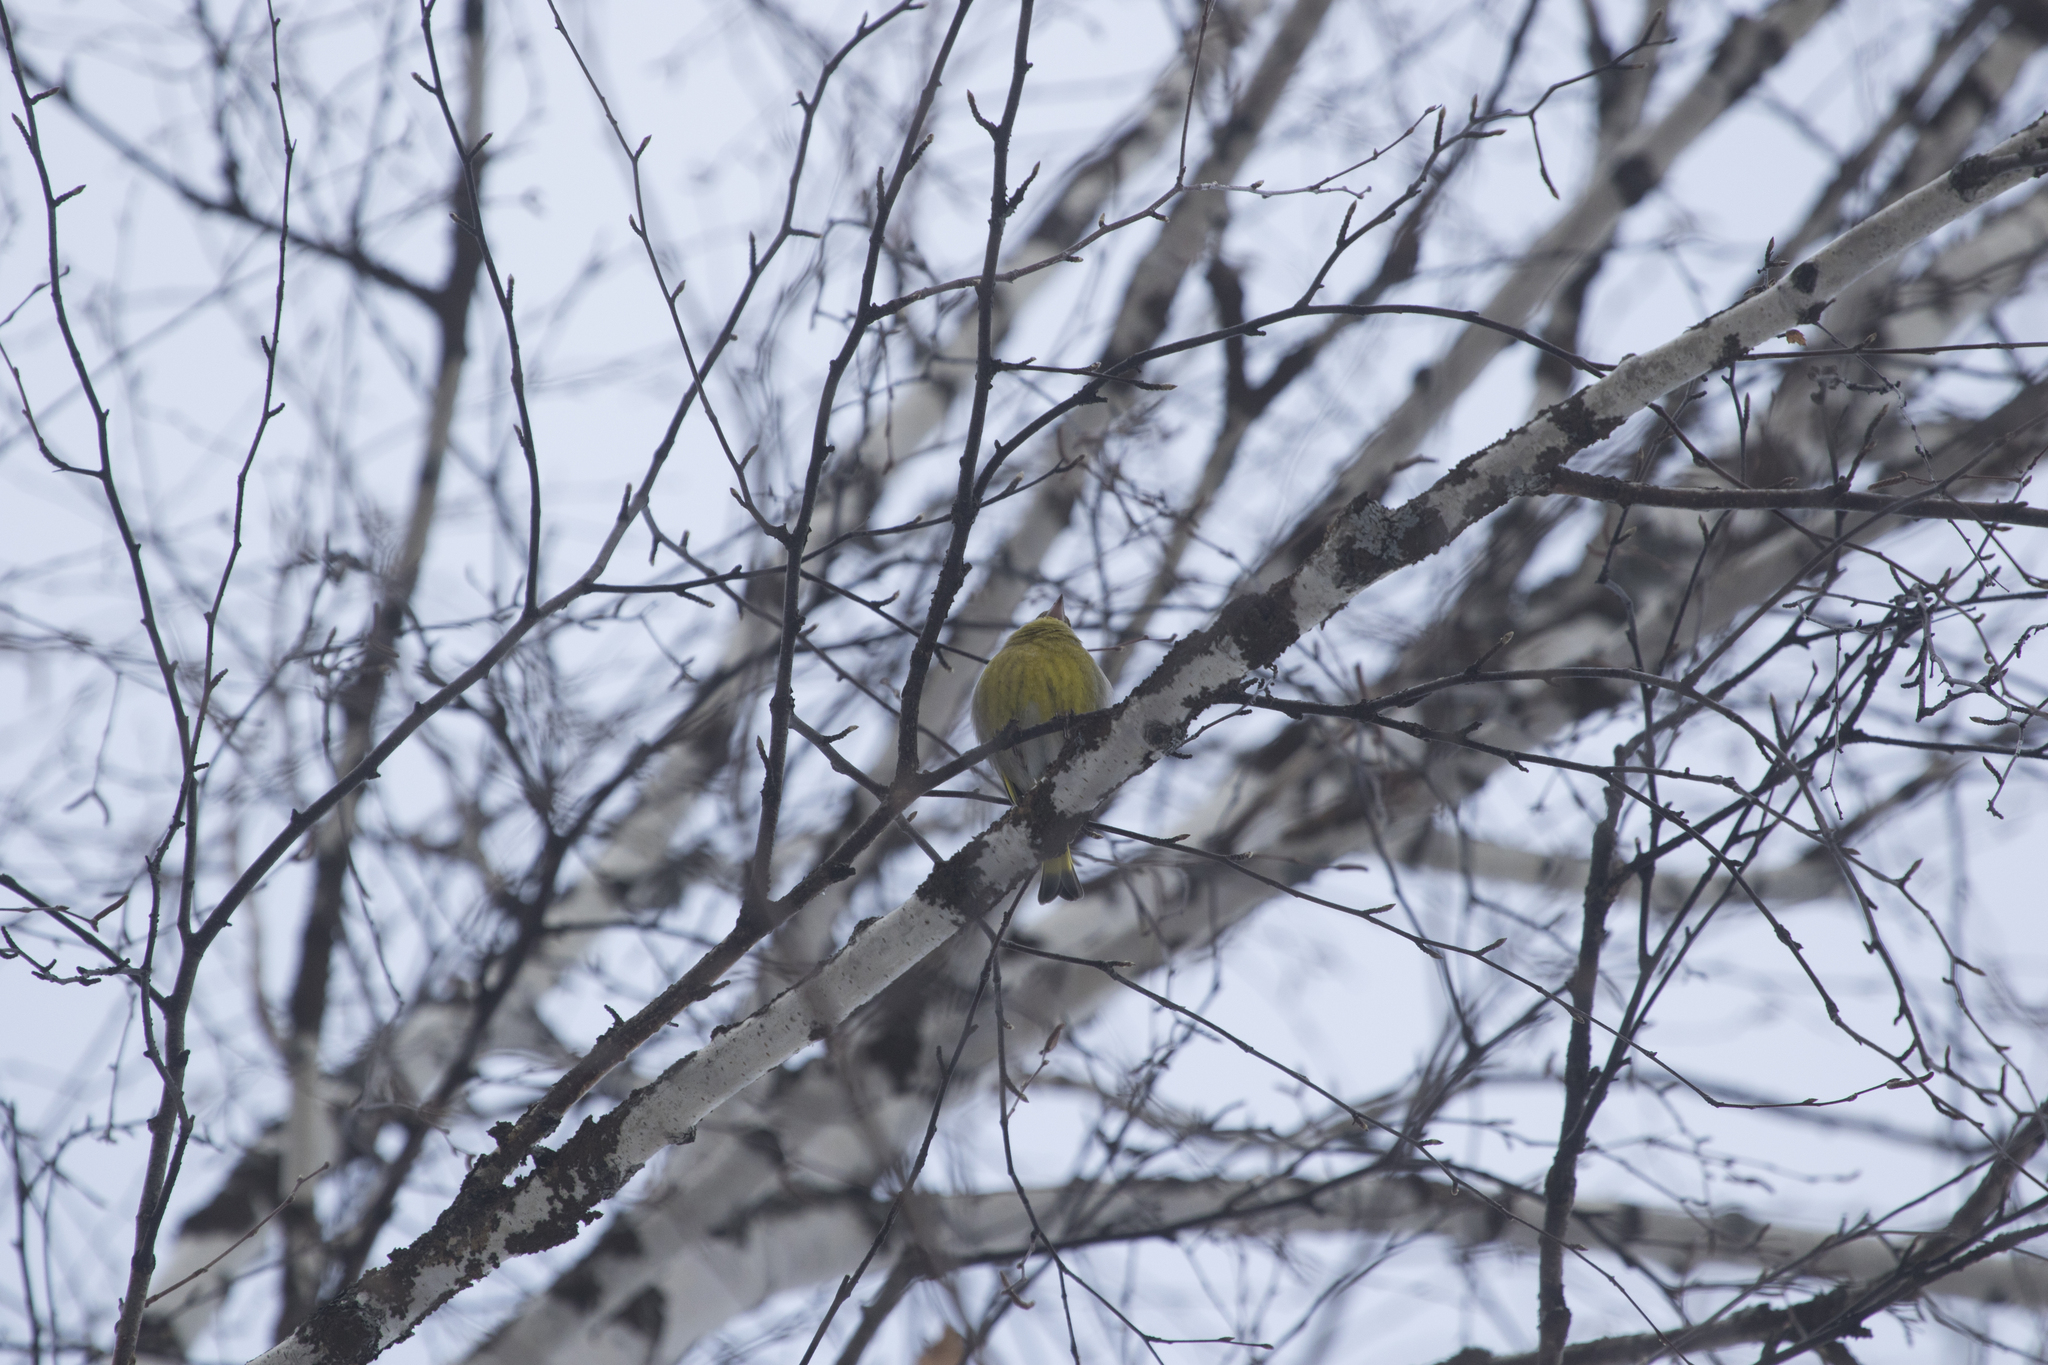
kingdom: Plantae
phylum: Tracheophyta
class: Liliopsida
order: Poales
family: Poaceae
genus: Chloris
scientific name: Chloris chloris
